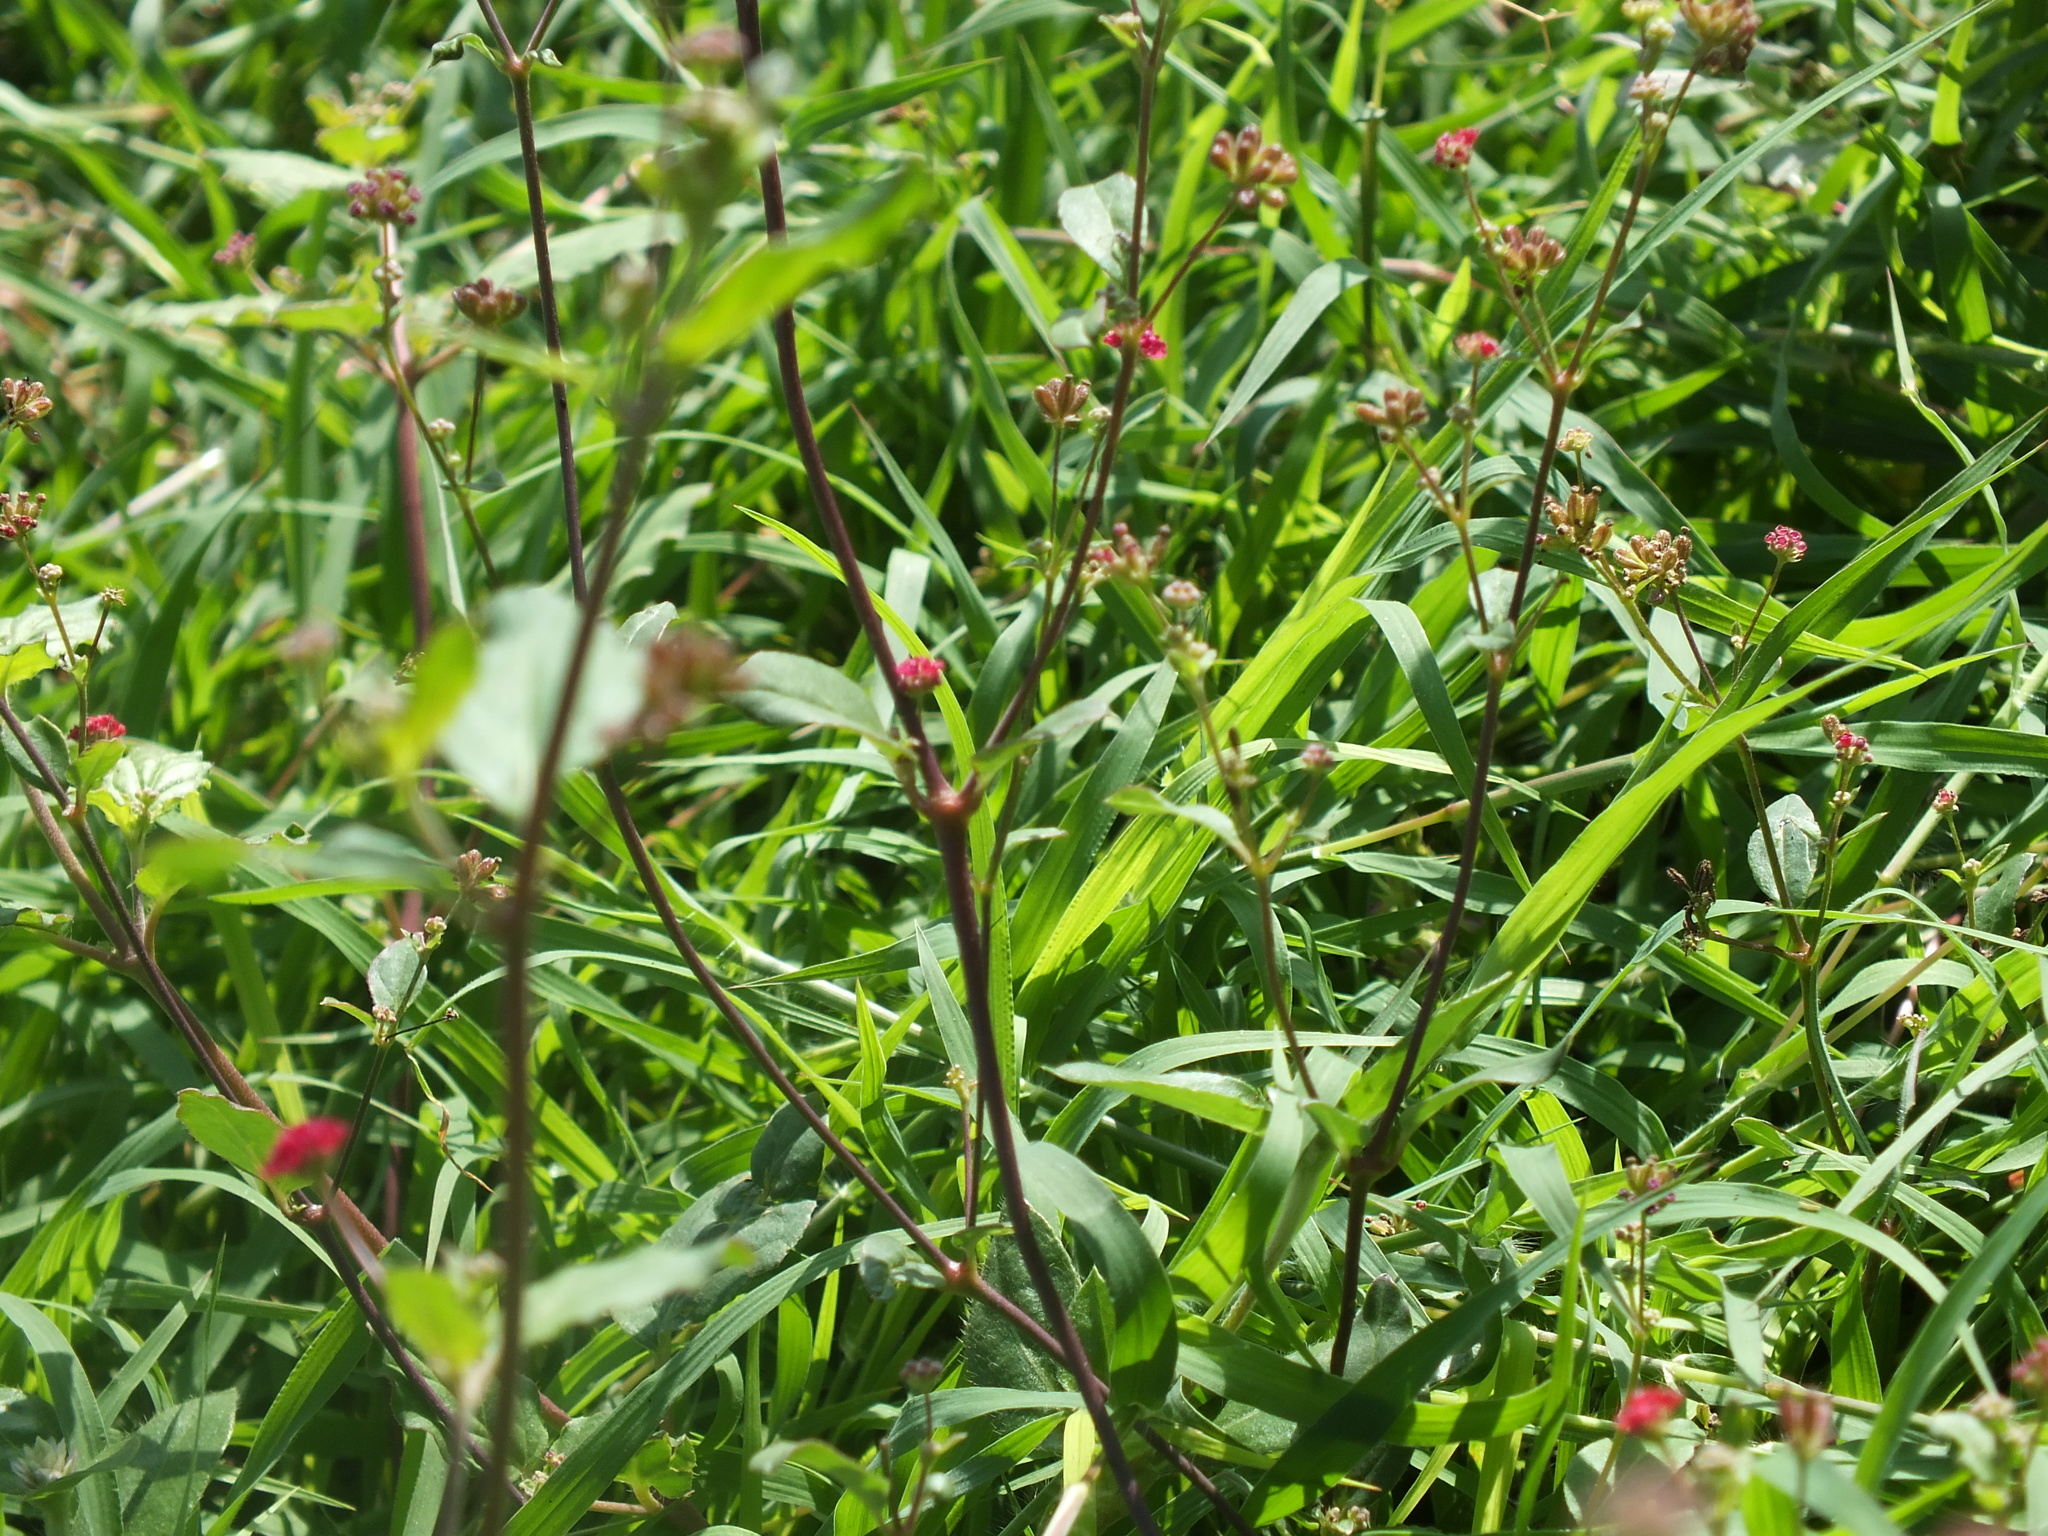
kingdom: Plantae
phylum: Tracheophyta
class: Magnoliopsida
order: Caryophyllales
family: Nyctaginaceae
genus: Boerhavia
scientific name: Boerhavia coccinea
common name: Scarlet spiderling
